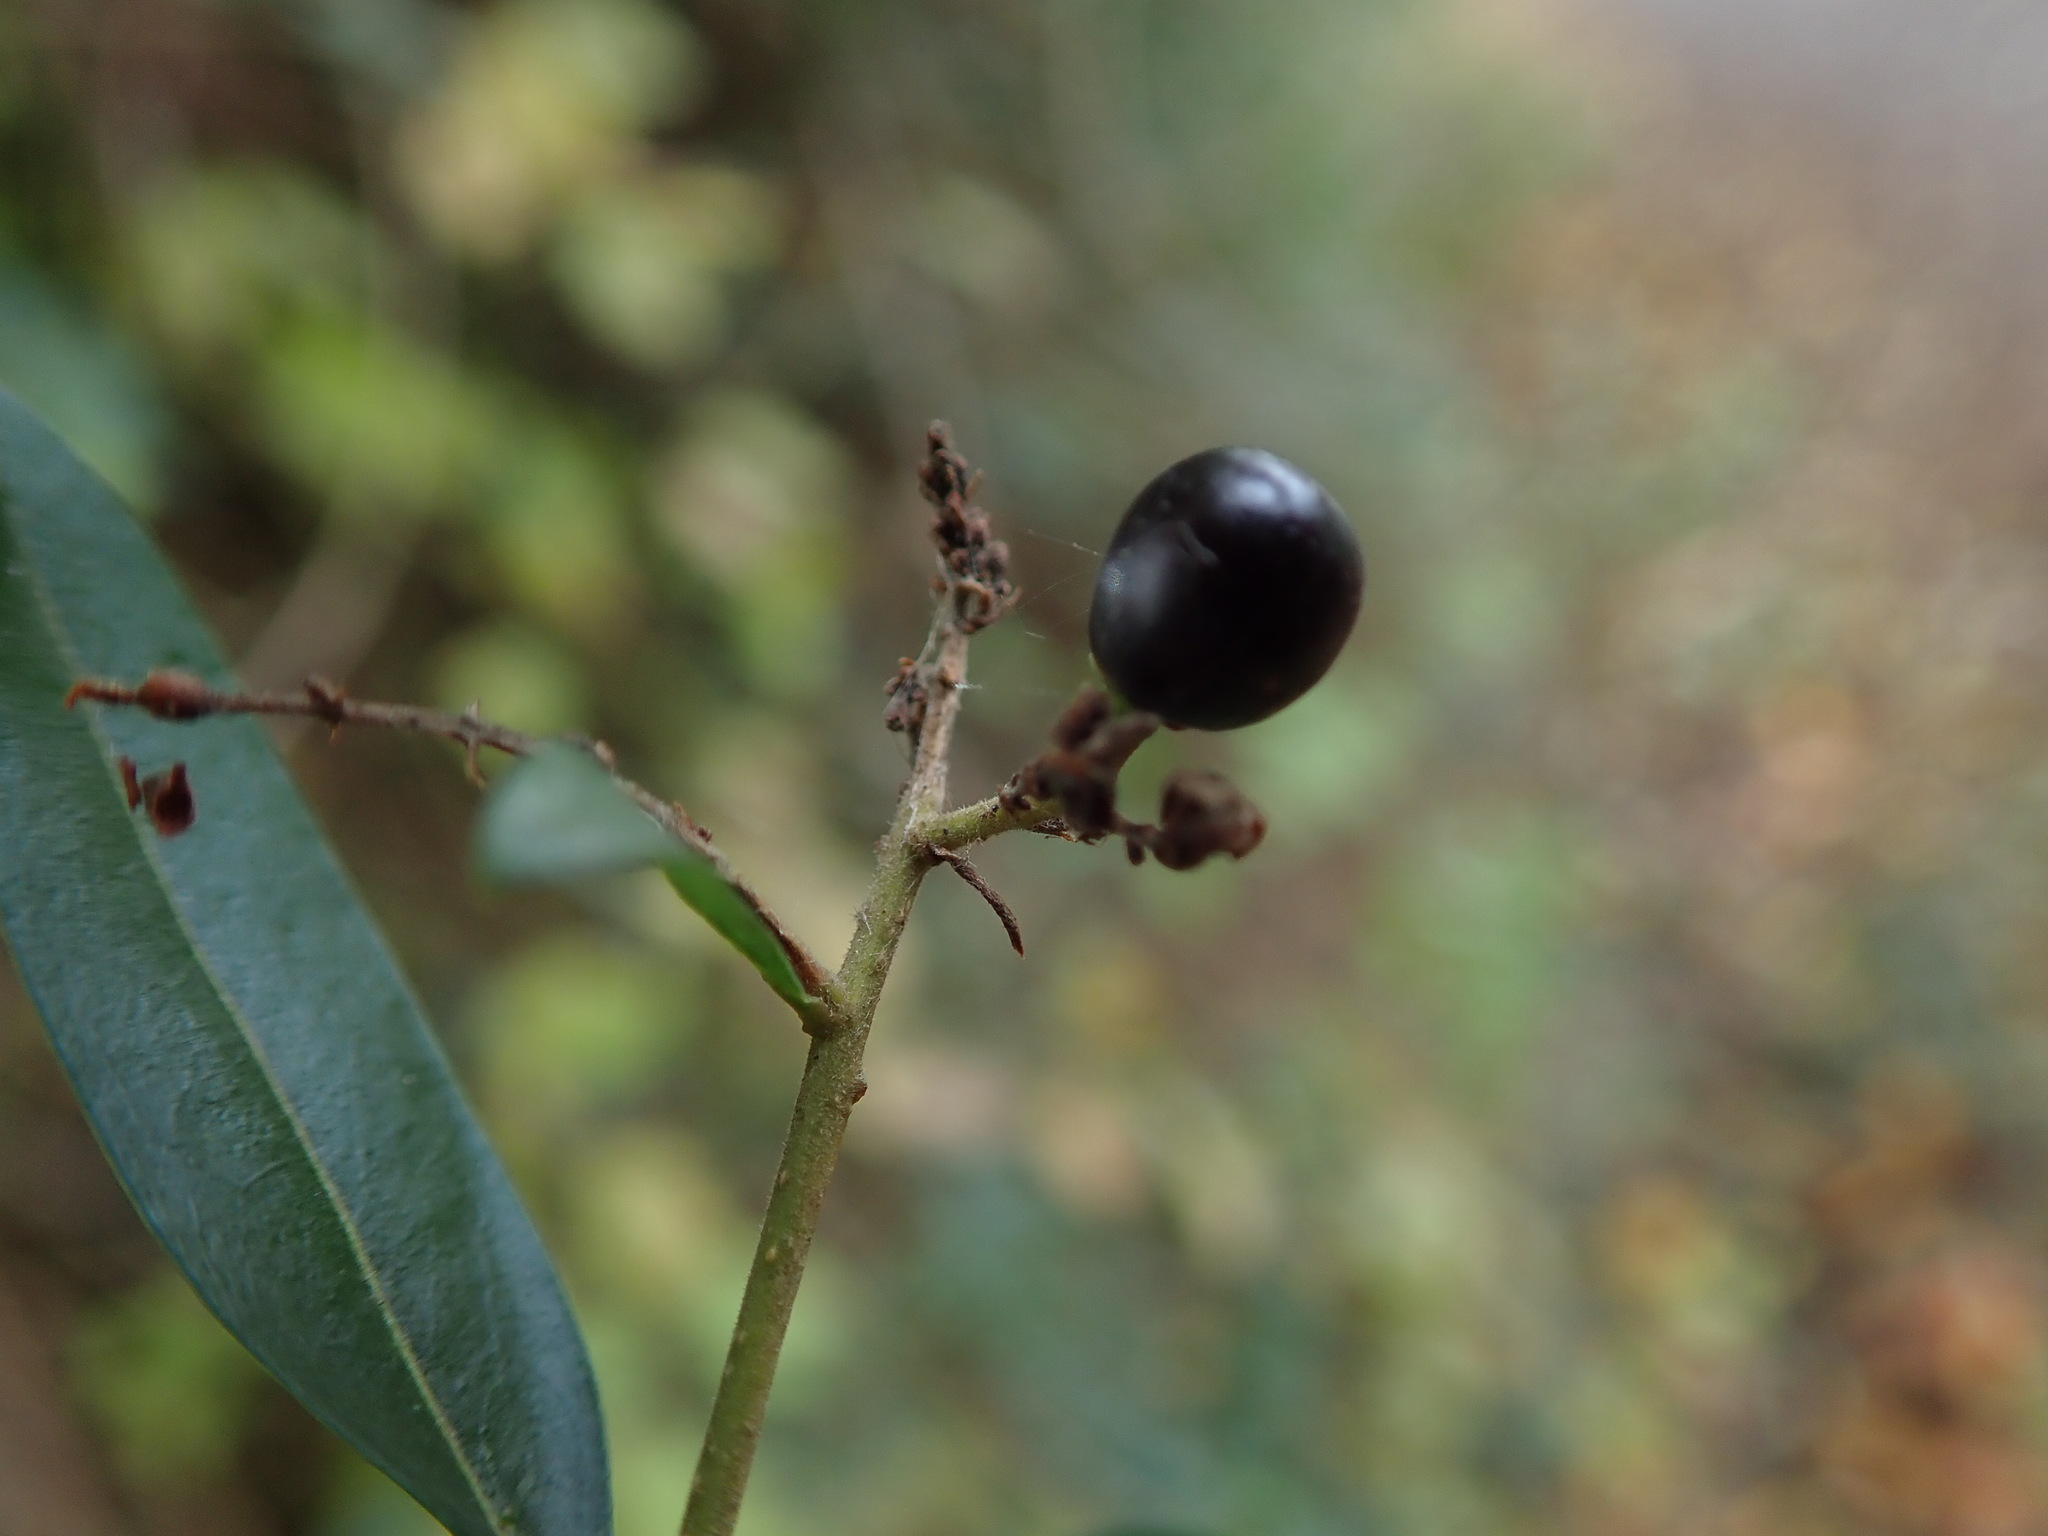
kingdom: Plantae
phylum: Tracheophyta
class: Magnoliopsida
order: Lamiales
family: Oleaceae
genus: Ligustrum
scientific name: Ligustrum vulgare
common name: Wild privet
